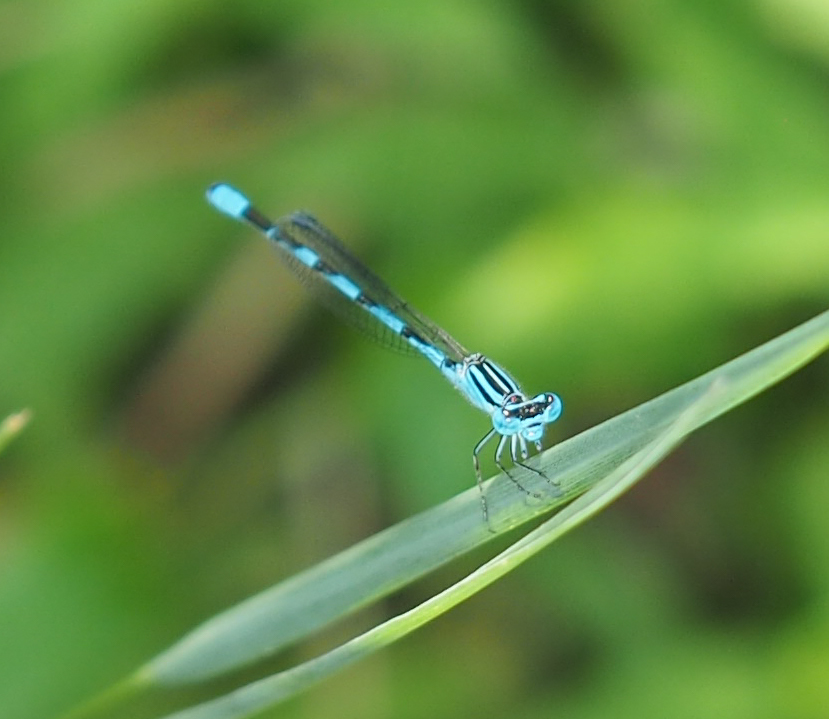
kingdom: Animalia
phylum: Arthropoda
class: Insecta
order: Odonata
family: Coenagrionidae
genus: Enallagma
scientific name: Enallagma durum
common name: Big bluet
